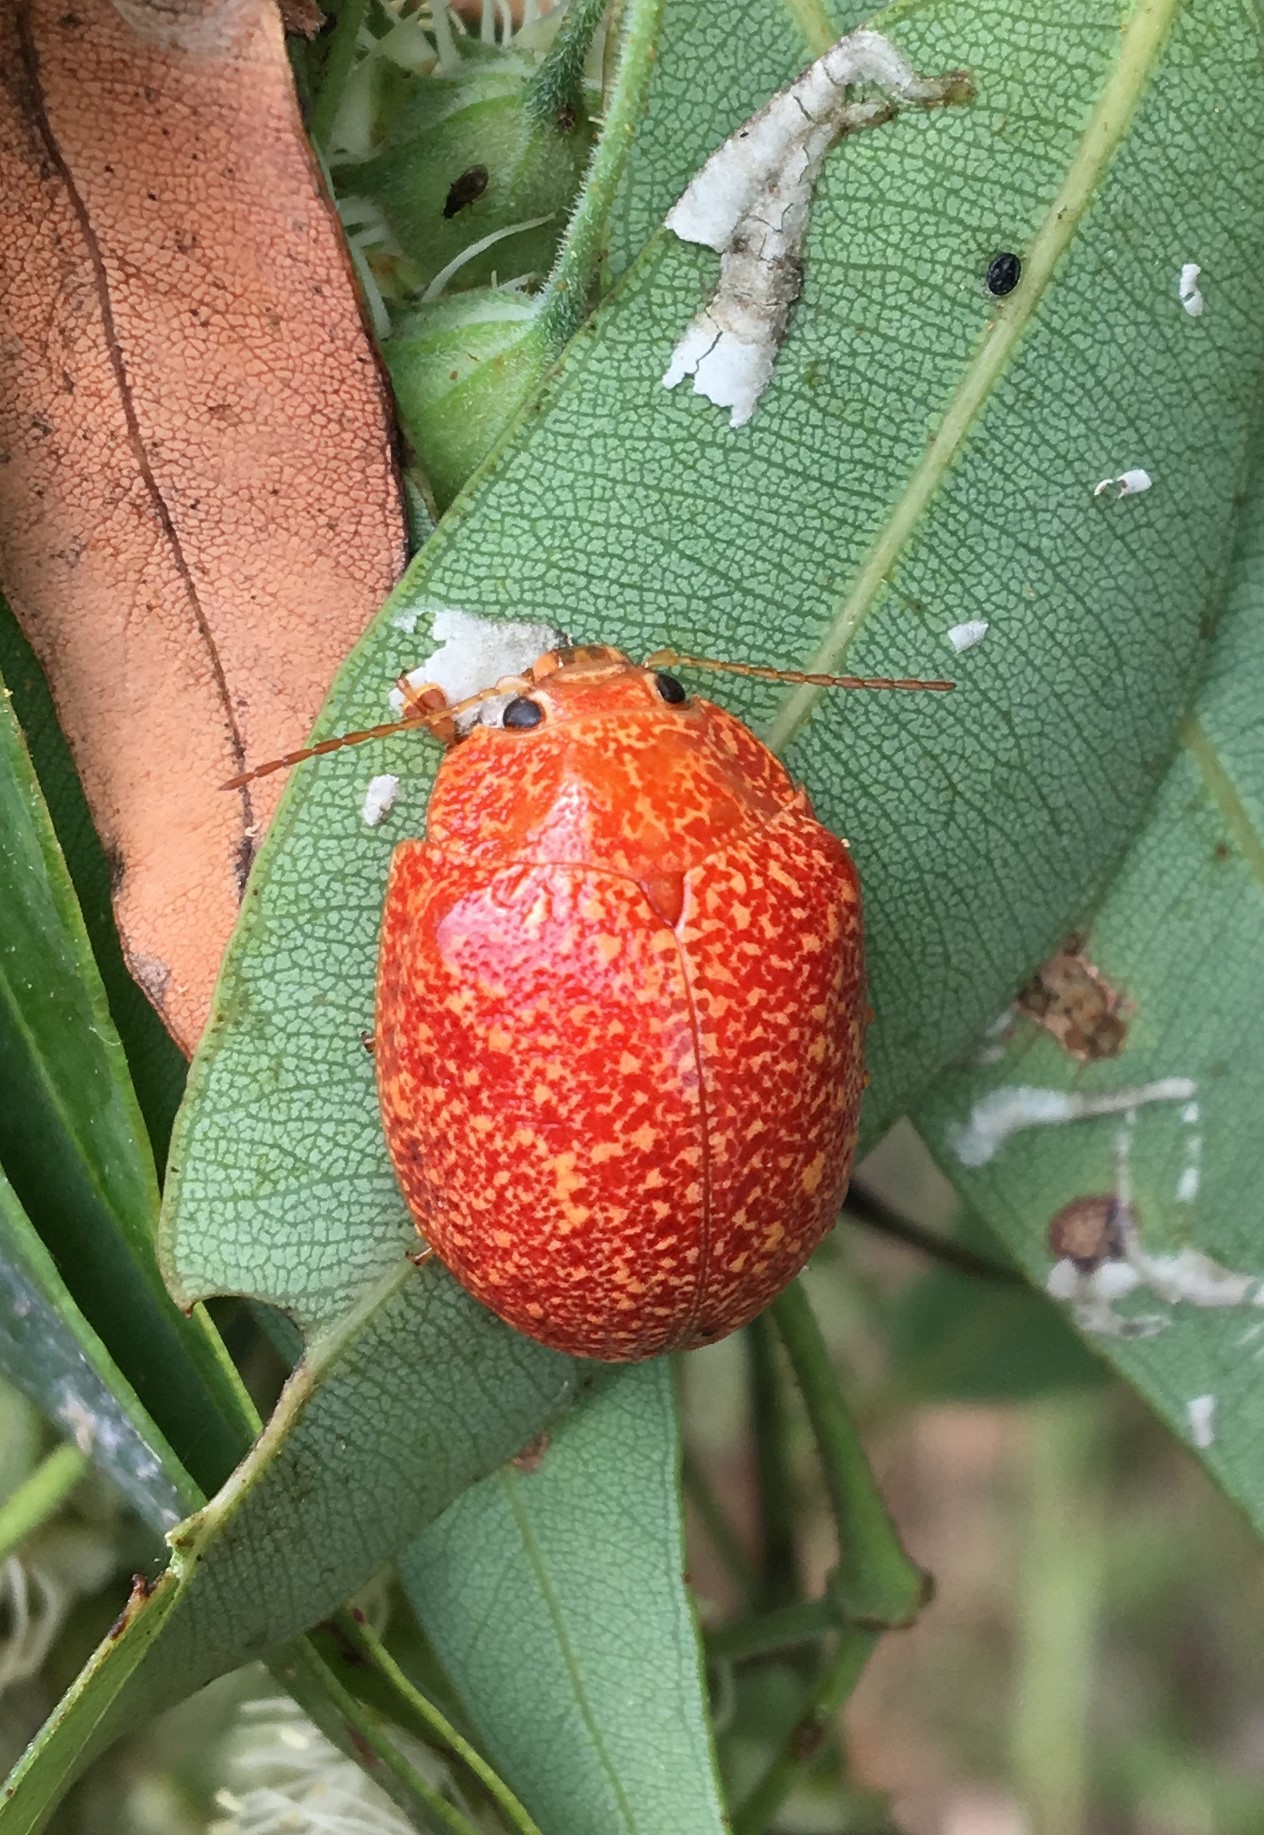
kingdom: Animalia
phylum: Arthropoda
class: Insecta
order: Coleoptera
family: Chrysomelidae
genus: Paropsis
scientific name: Paropsis
